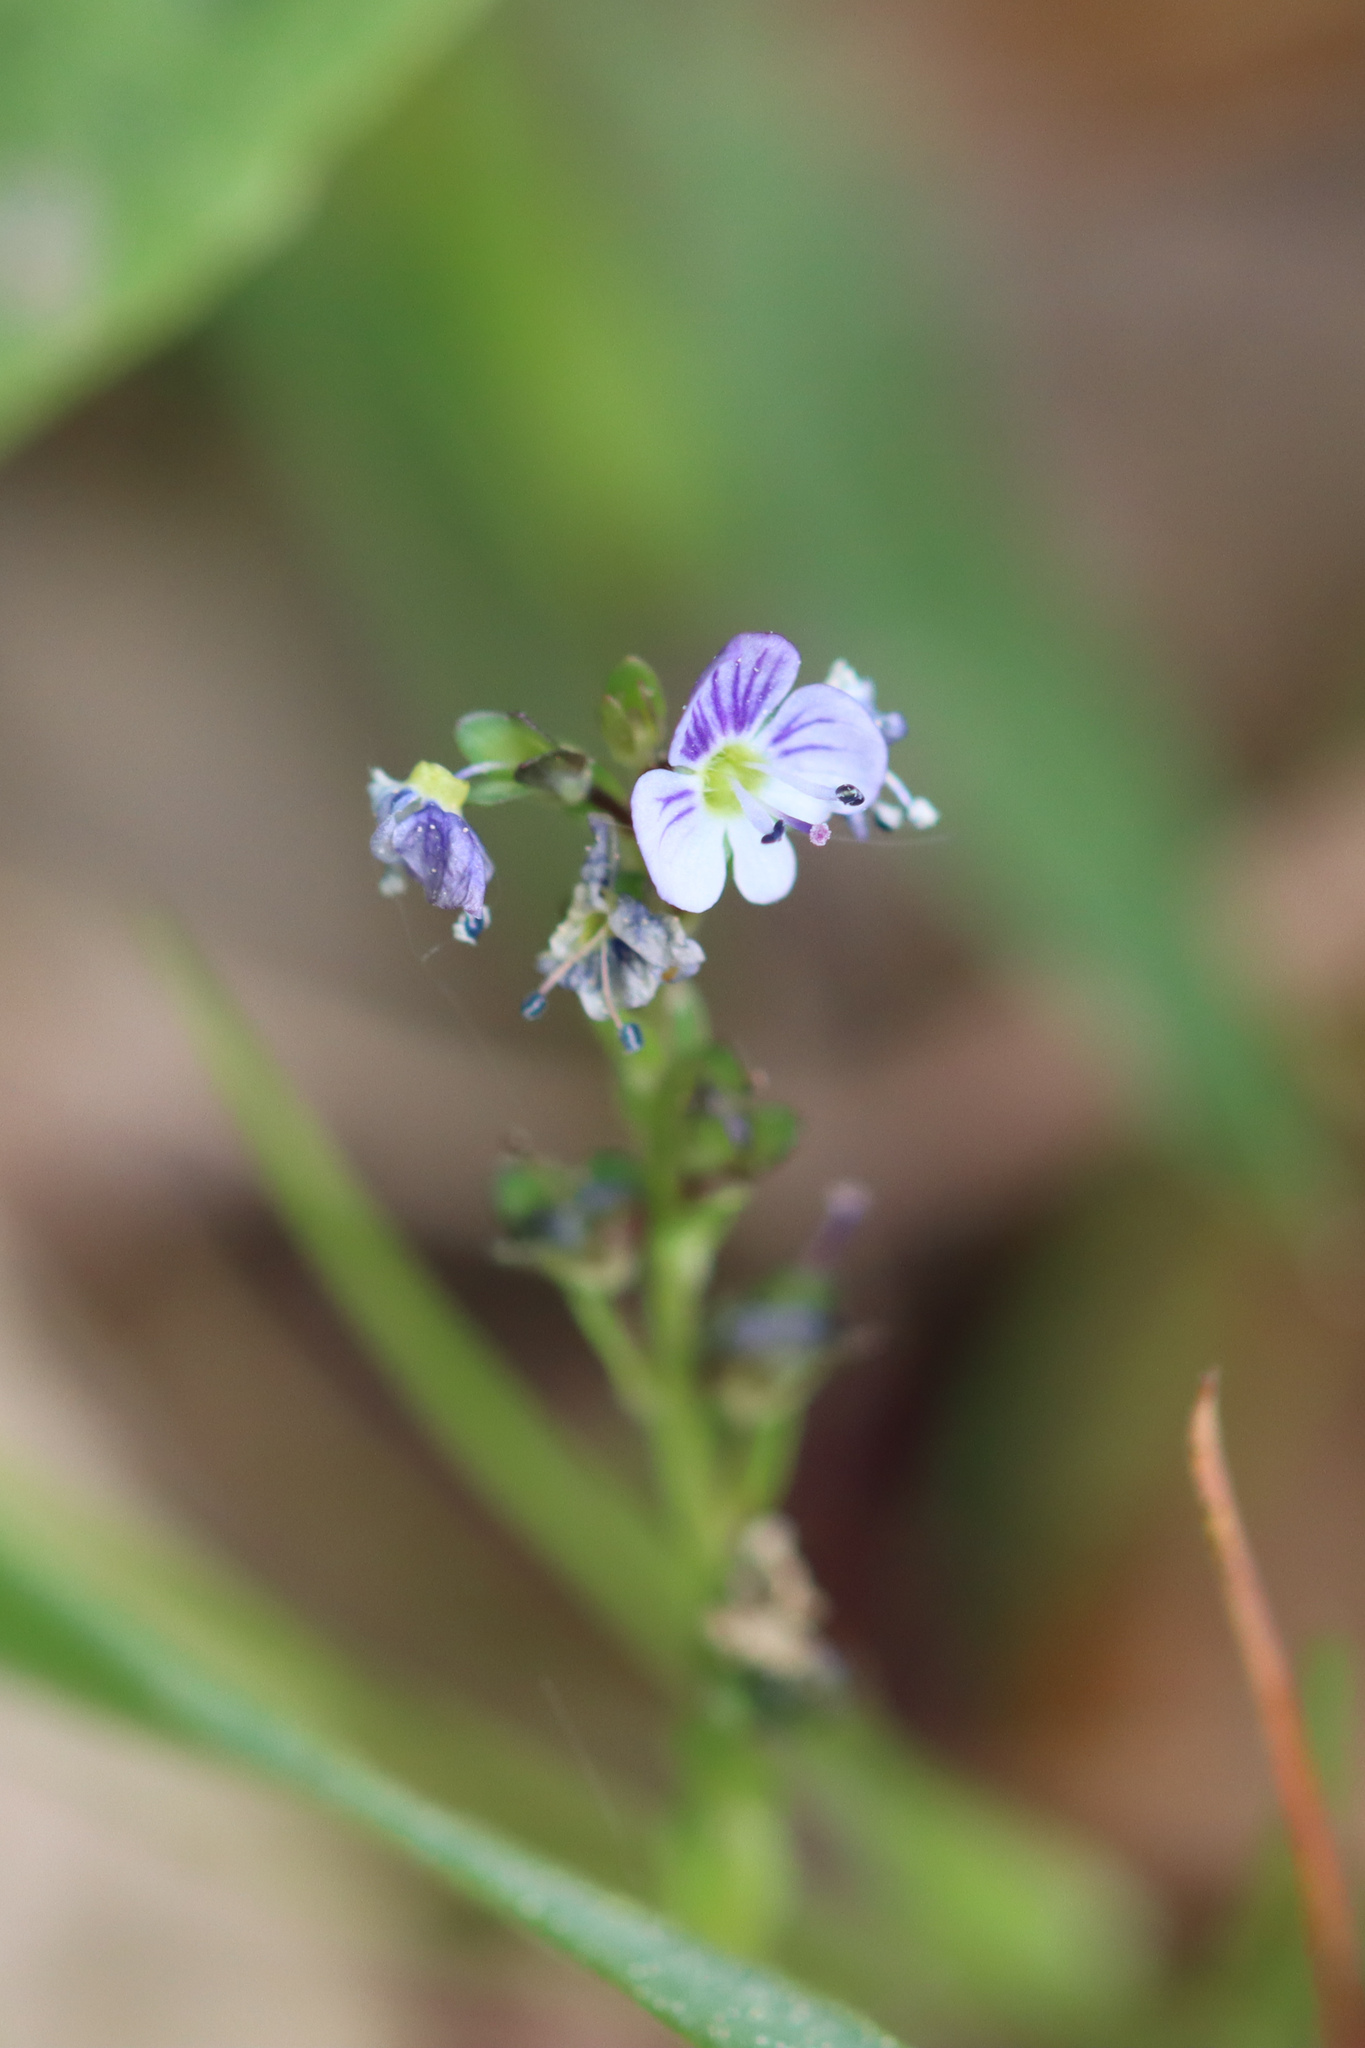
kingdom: Plantae
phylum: Tracheophyta
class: Magnoliopsida
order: Lamiales
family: Plantaginaceae
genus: Veronica
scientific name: Veronica serpyllifolia
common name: Thyme-leaved speedwell
